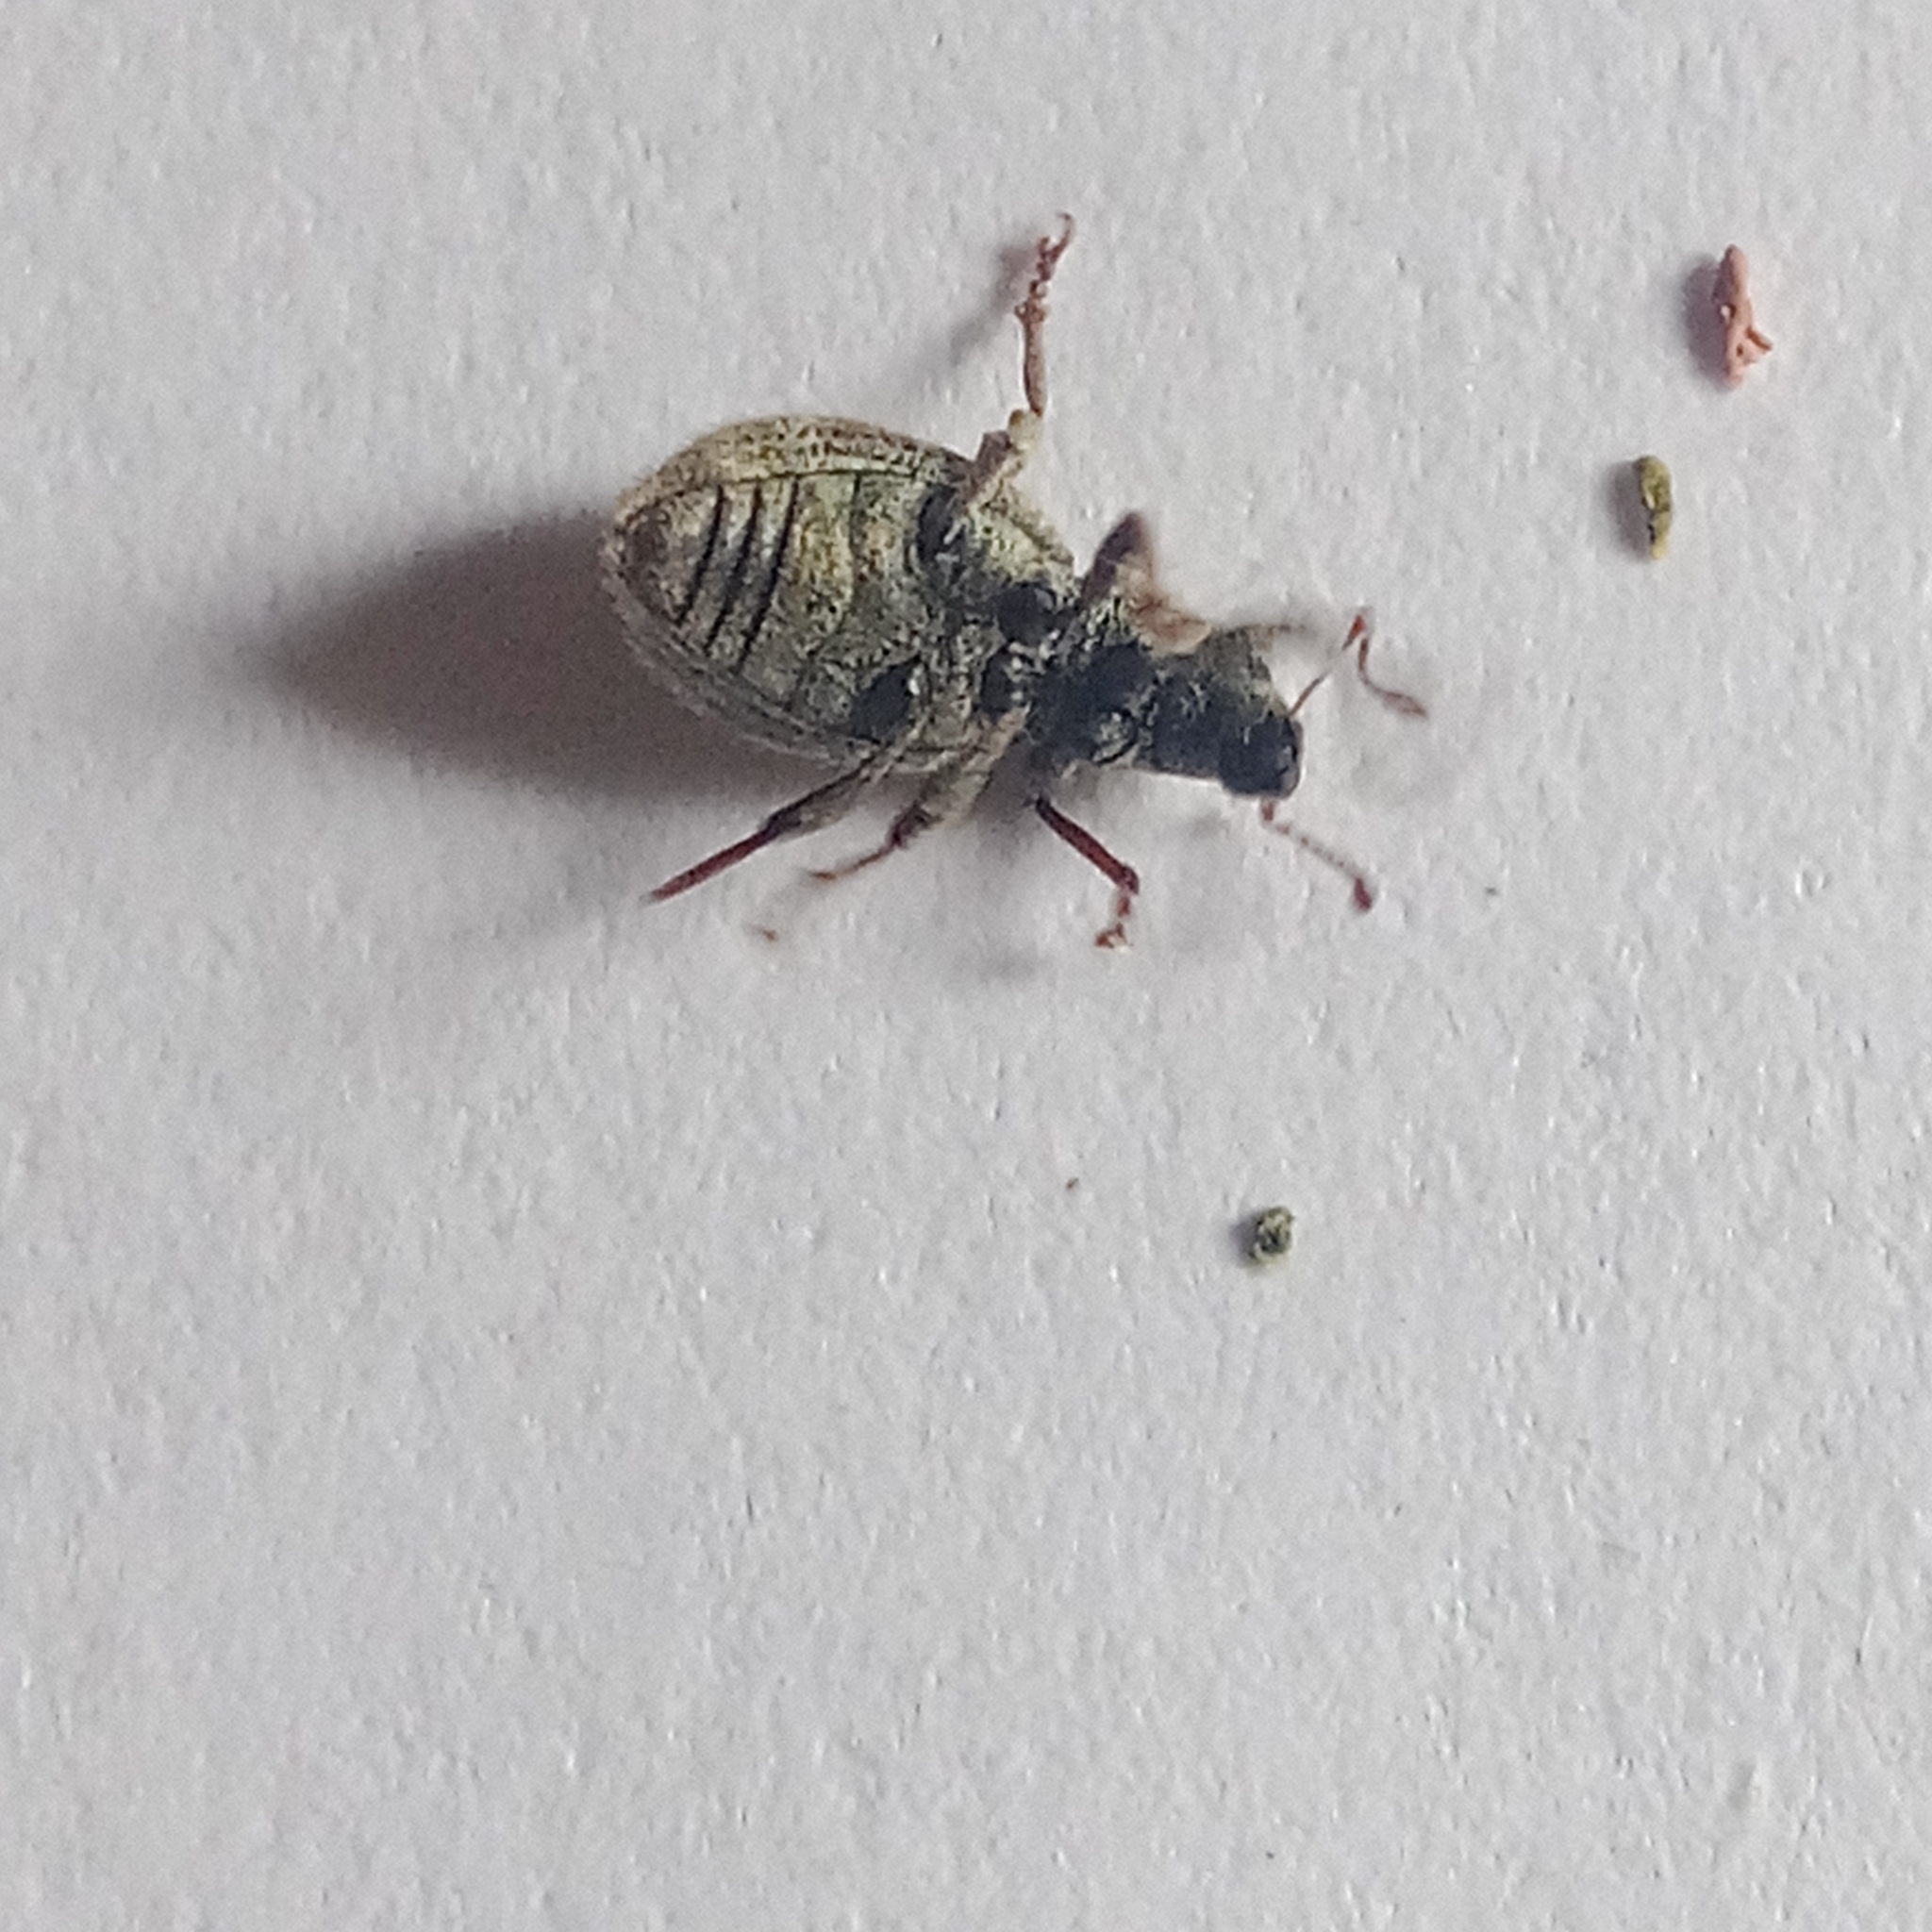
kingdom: Animalia
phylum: Arthropoda
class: Insecta
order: Coleoptera
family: Curculionidae
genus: Sciaphilus
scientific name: Sciaphilus asperatus
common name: Weevil
